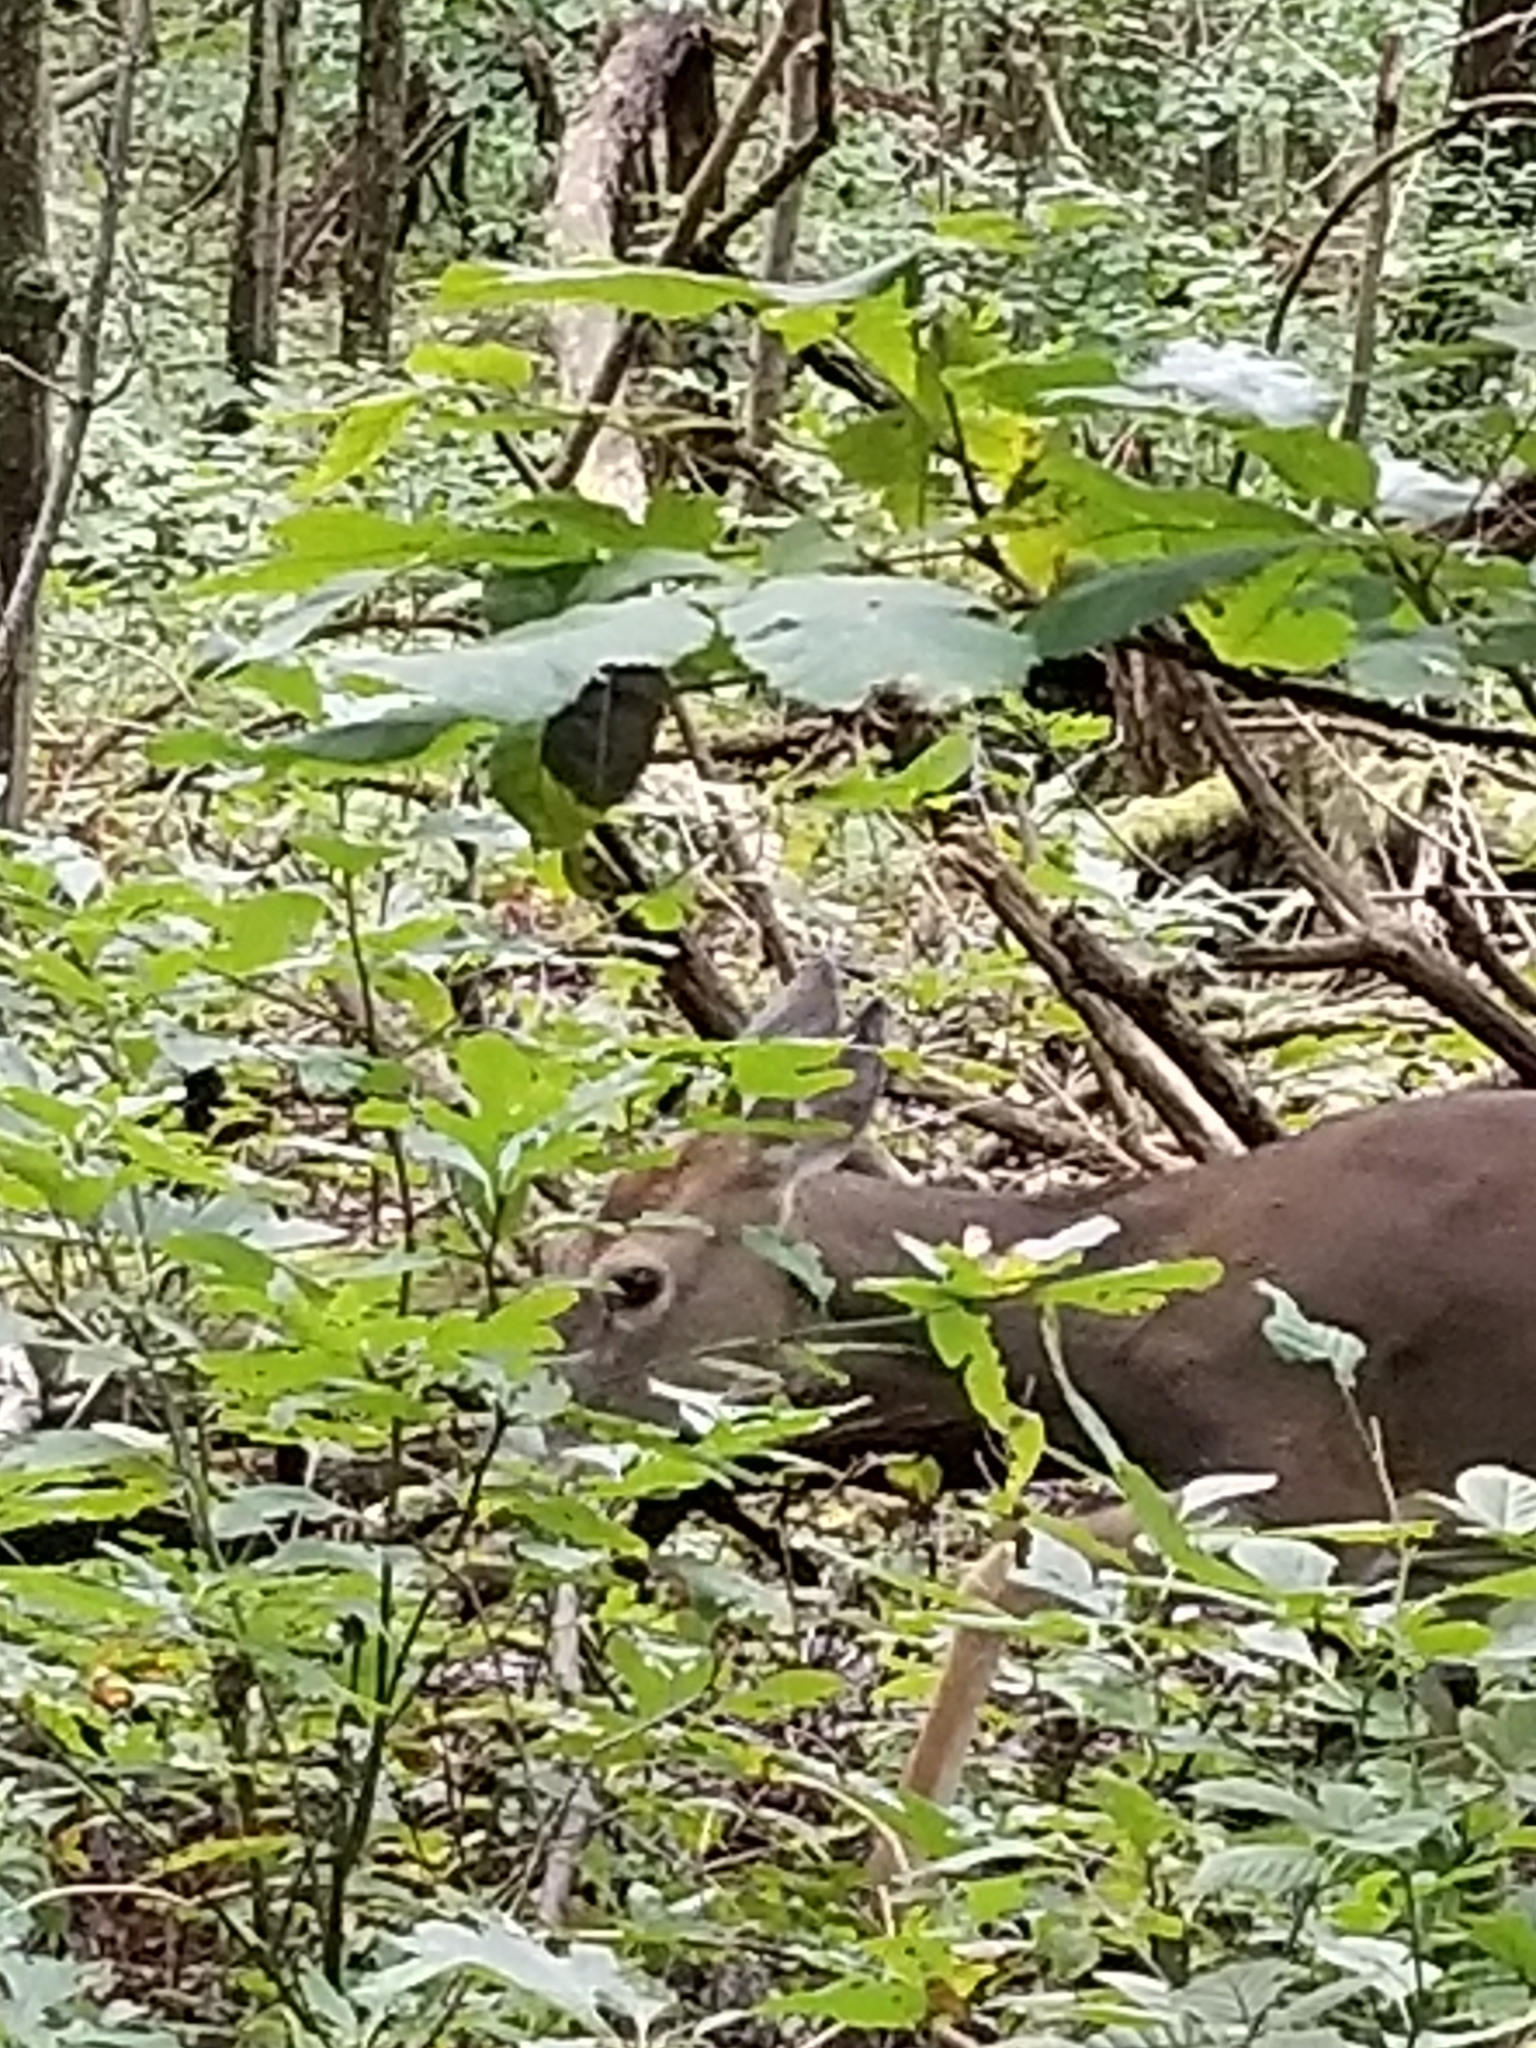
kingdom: Animalia
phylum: Chordata
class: Mammalia
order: Artiodactyla
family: Cervidae
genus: Odocoileus
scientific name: Odocoileus virginianus
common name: White-tailed deer
